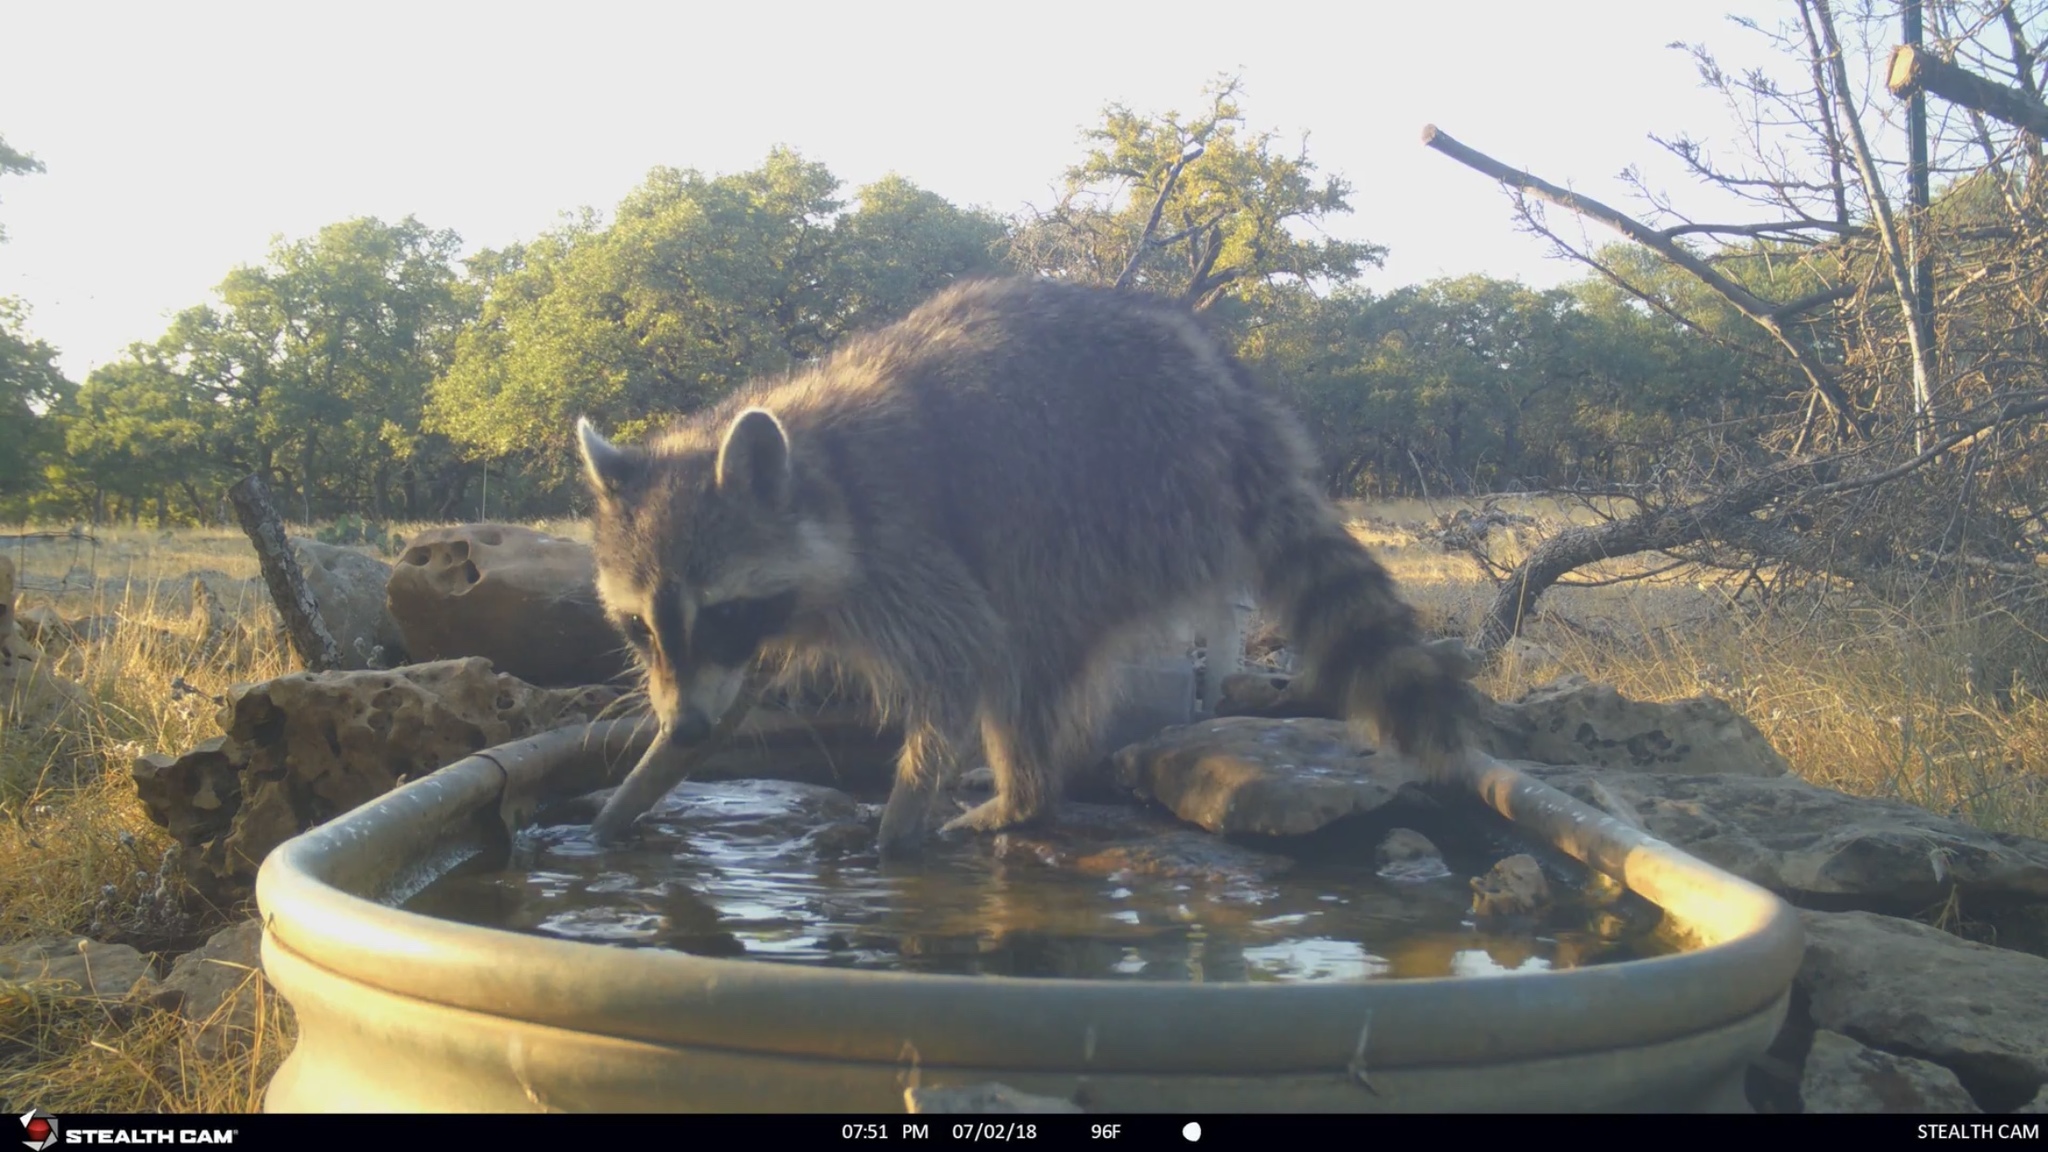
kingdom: Animalia
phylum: Chordata
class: Mammalia
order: Carnivora
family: Procyonidae
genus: Procyon
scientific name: Procyon lotor
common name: Raccoon
